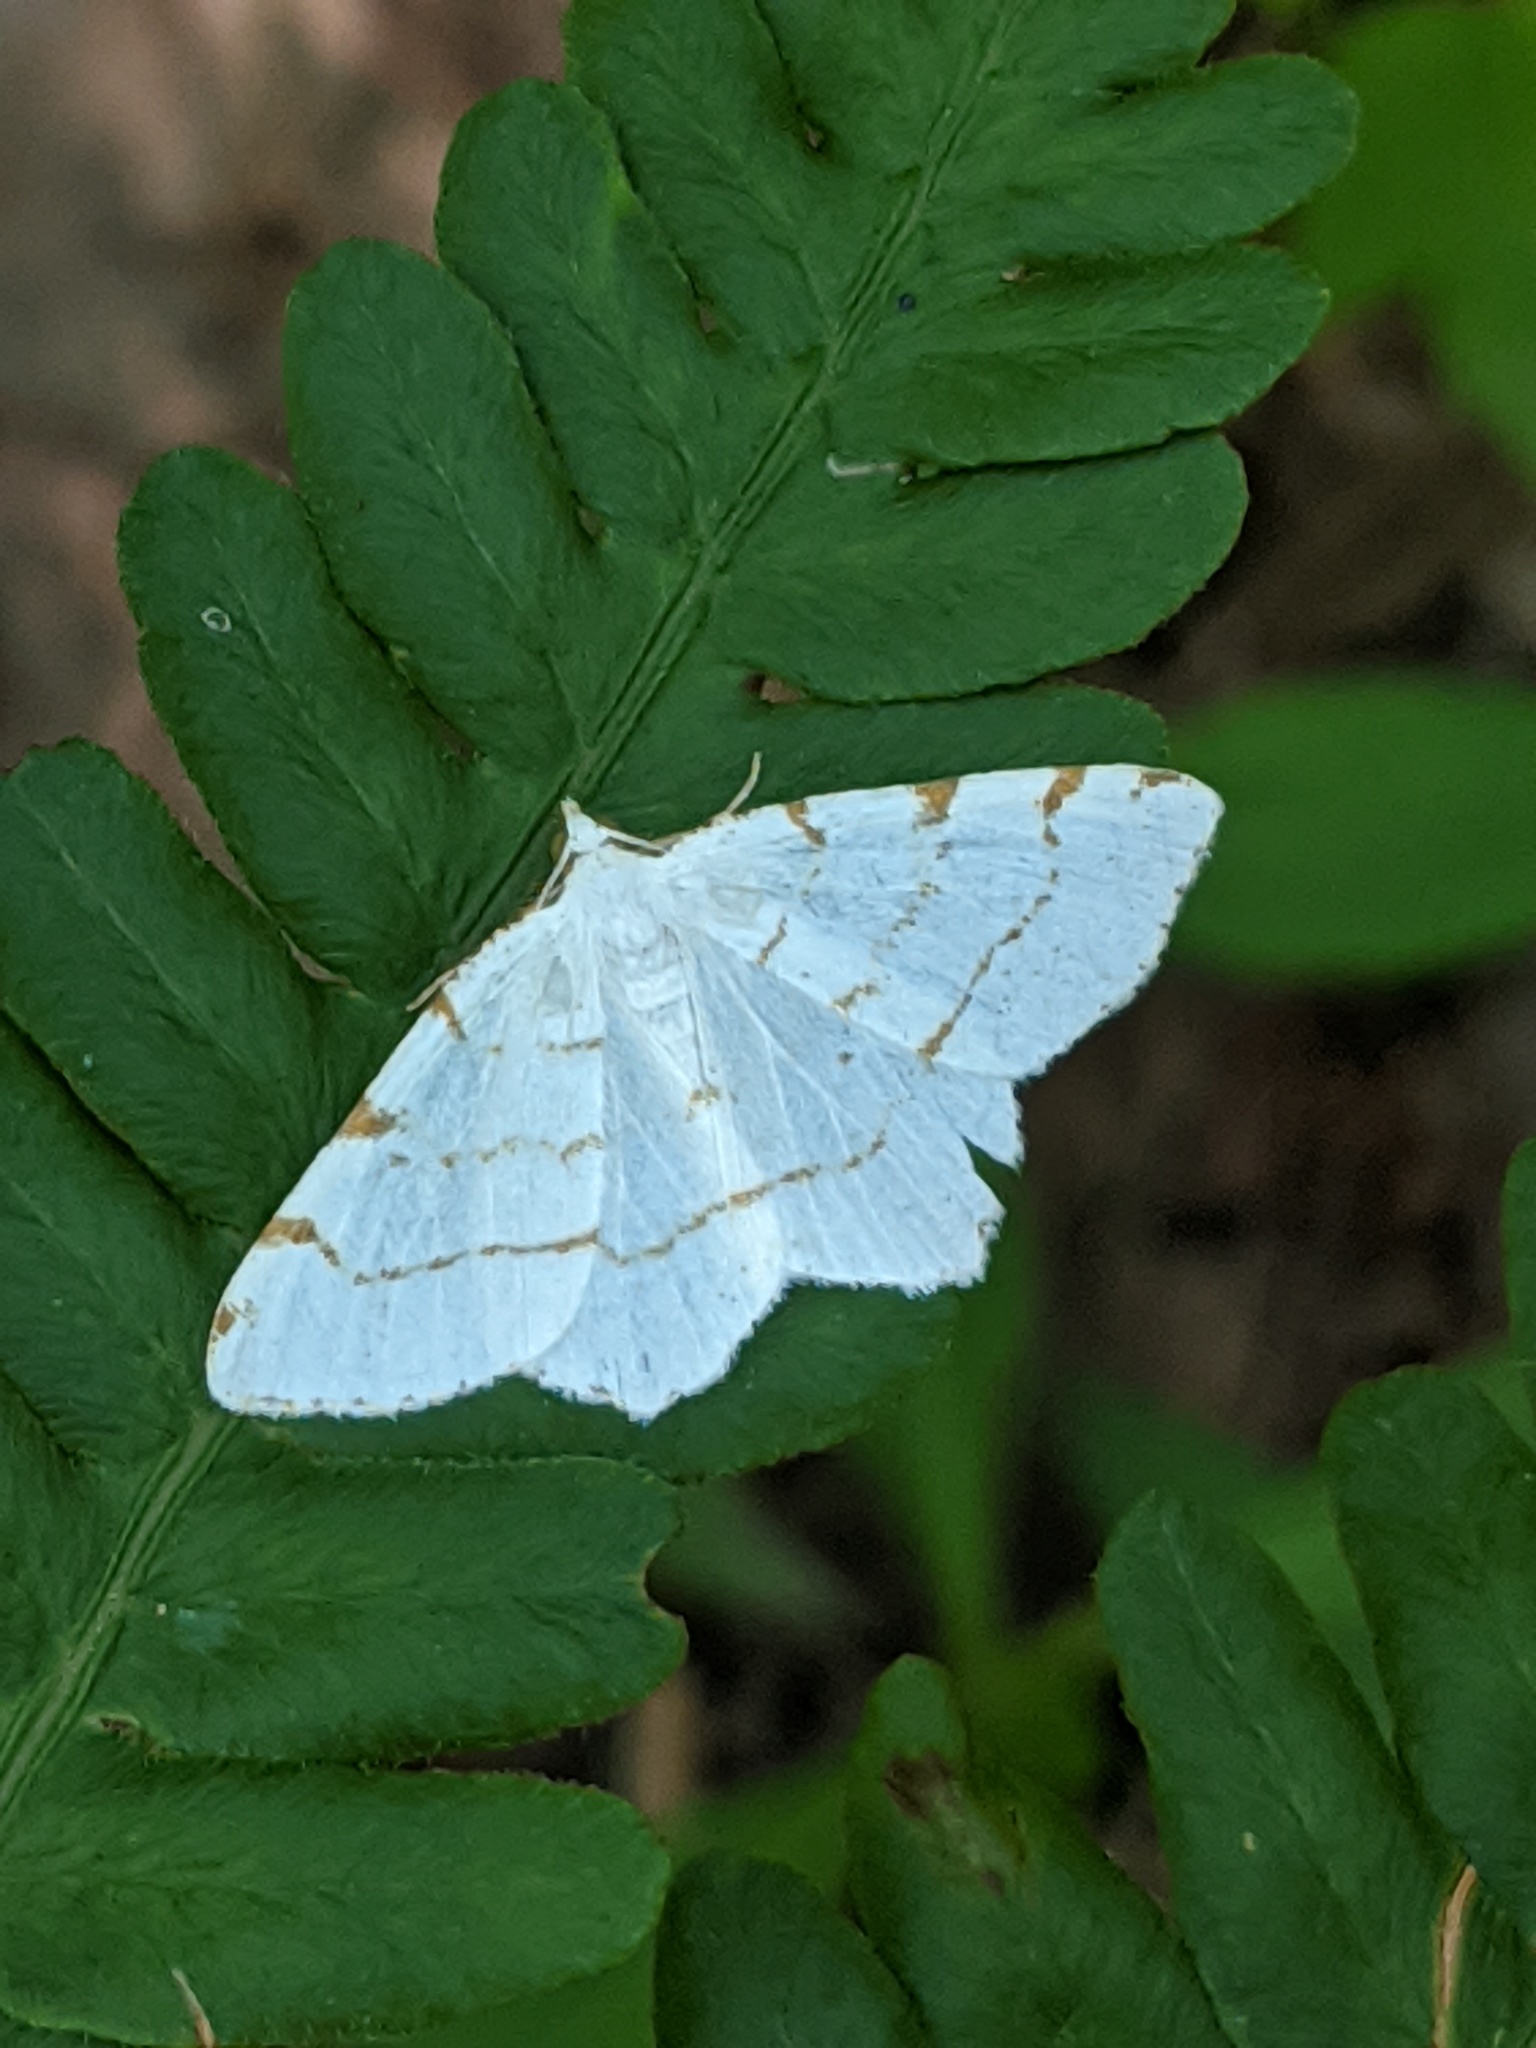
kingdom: Animalia
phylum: Arthropoda
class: Insecta
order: Lepidoptera
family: Geometridae
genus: Macaria
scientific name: Macaria pustularia
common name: Lesser maple spanworm moth
